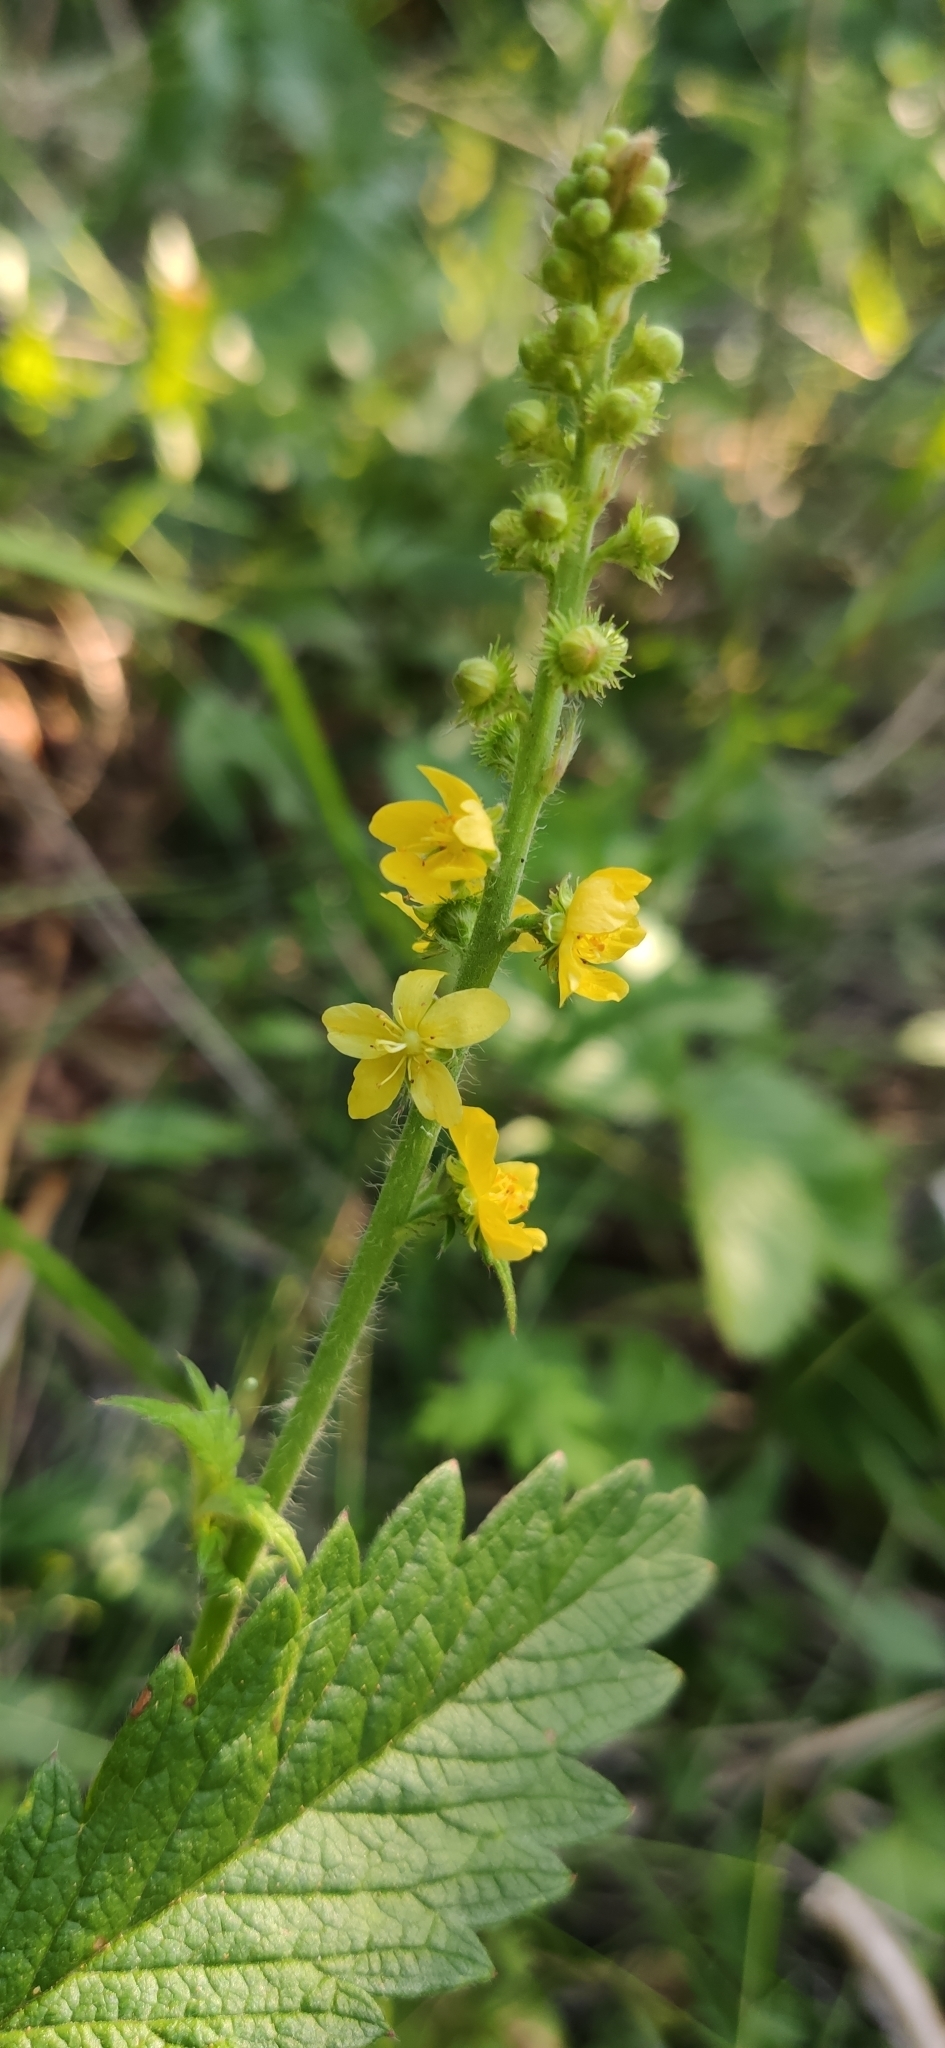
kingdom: Plantae
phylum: Tracheophyta
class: Magnoliopsida
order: Rosales
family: Rosaceae
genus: Agrimonia
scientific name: Agrimonia eupatoria
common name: Agrimony
